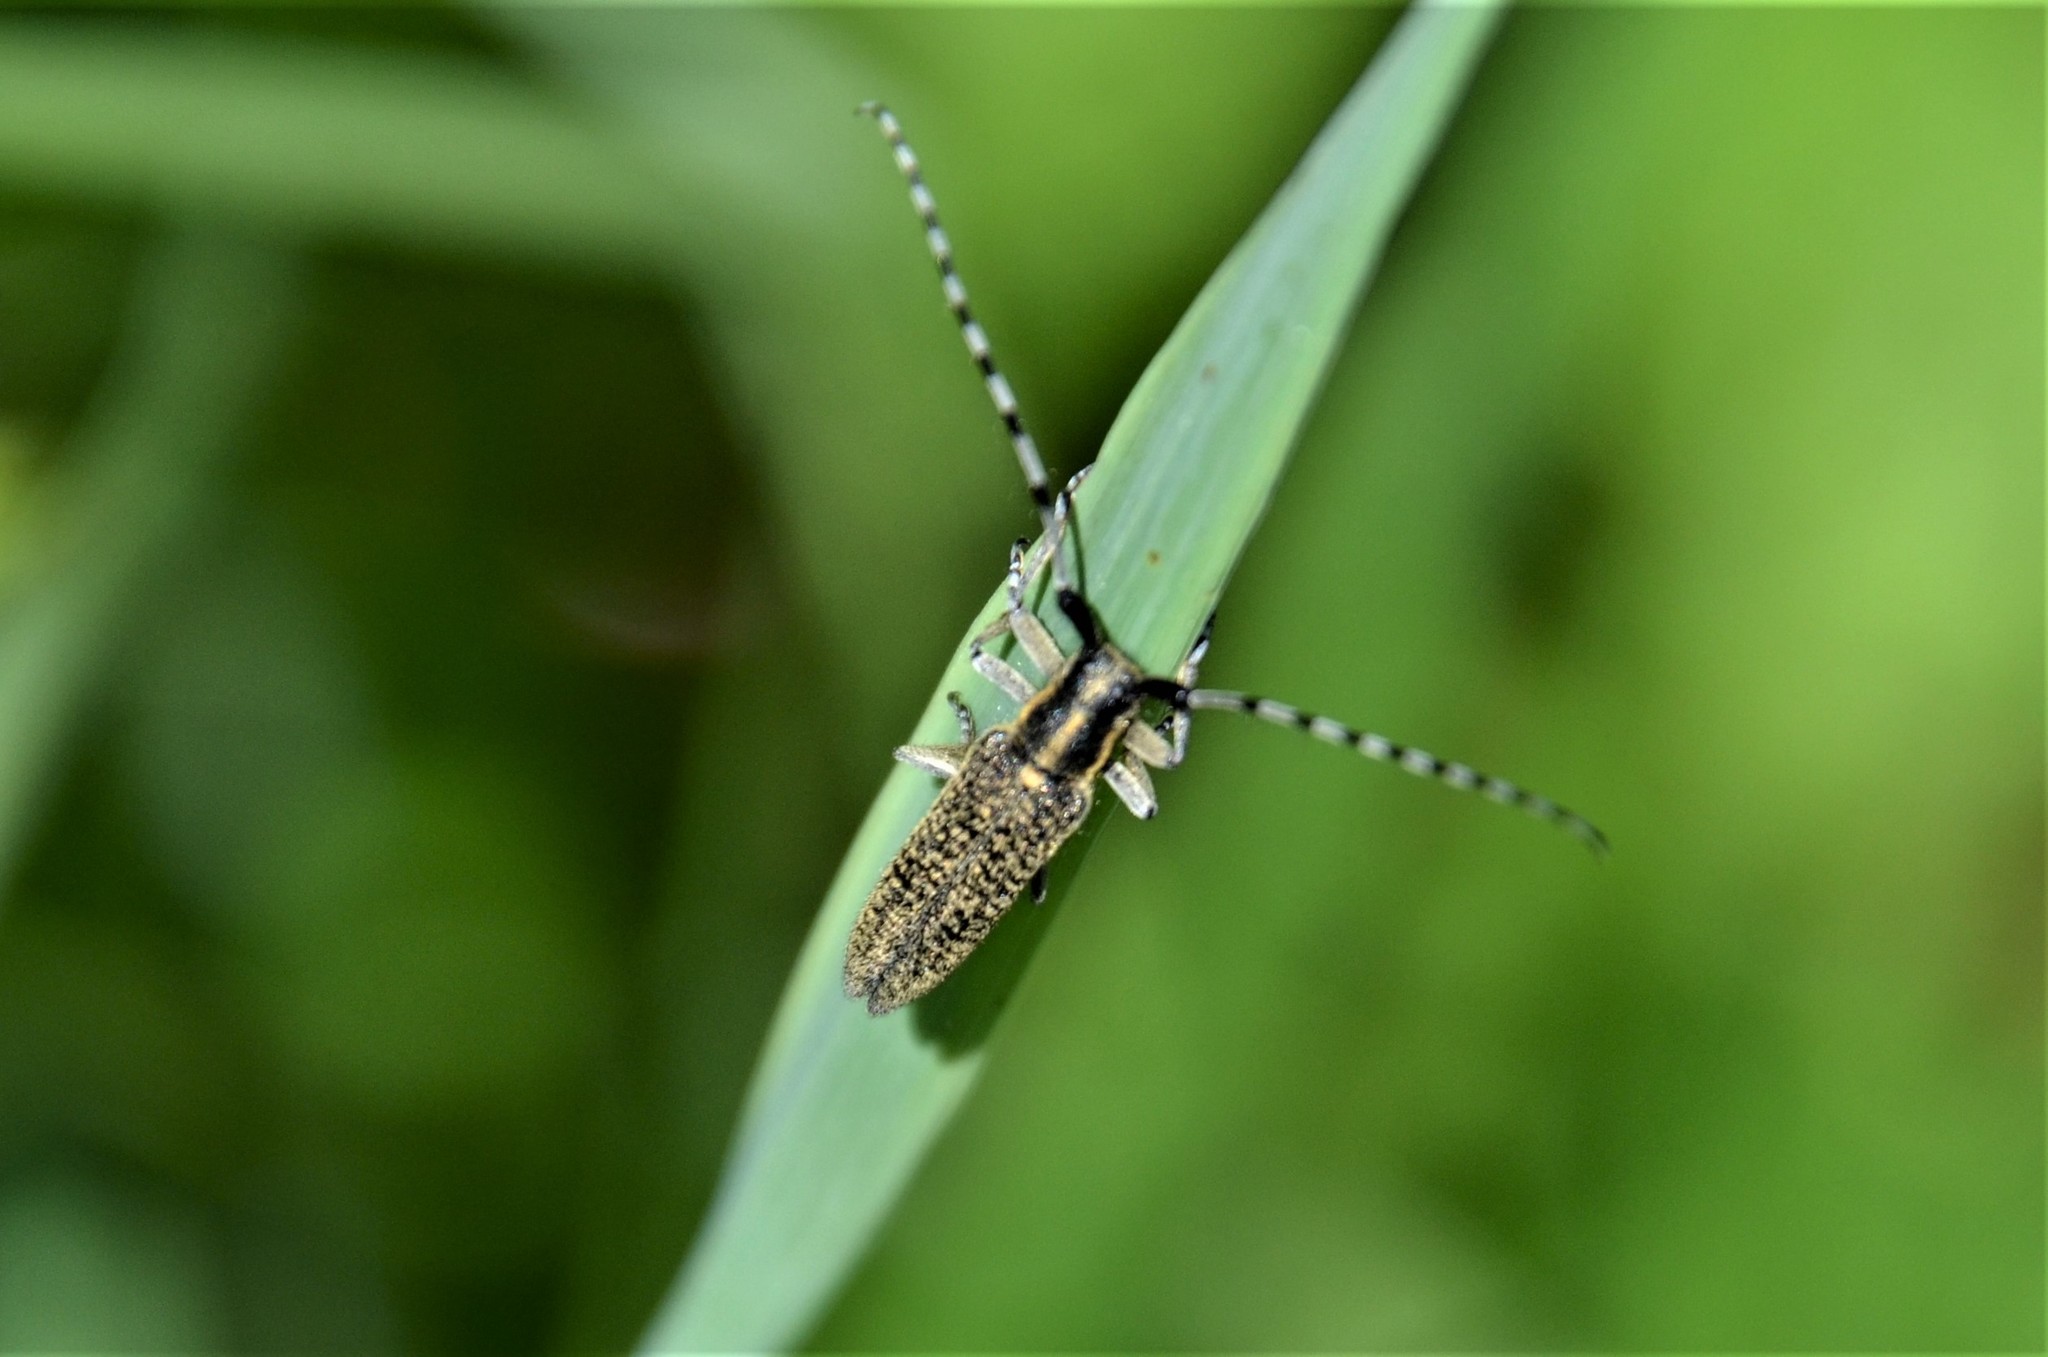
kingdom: Animalia
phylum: Arthropoda
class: Insecta
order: Coleoptera
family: Cerambycidae
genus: Agapanthia
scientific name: Agapanthia villosoviridescens
